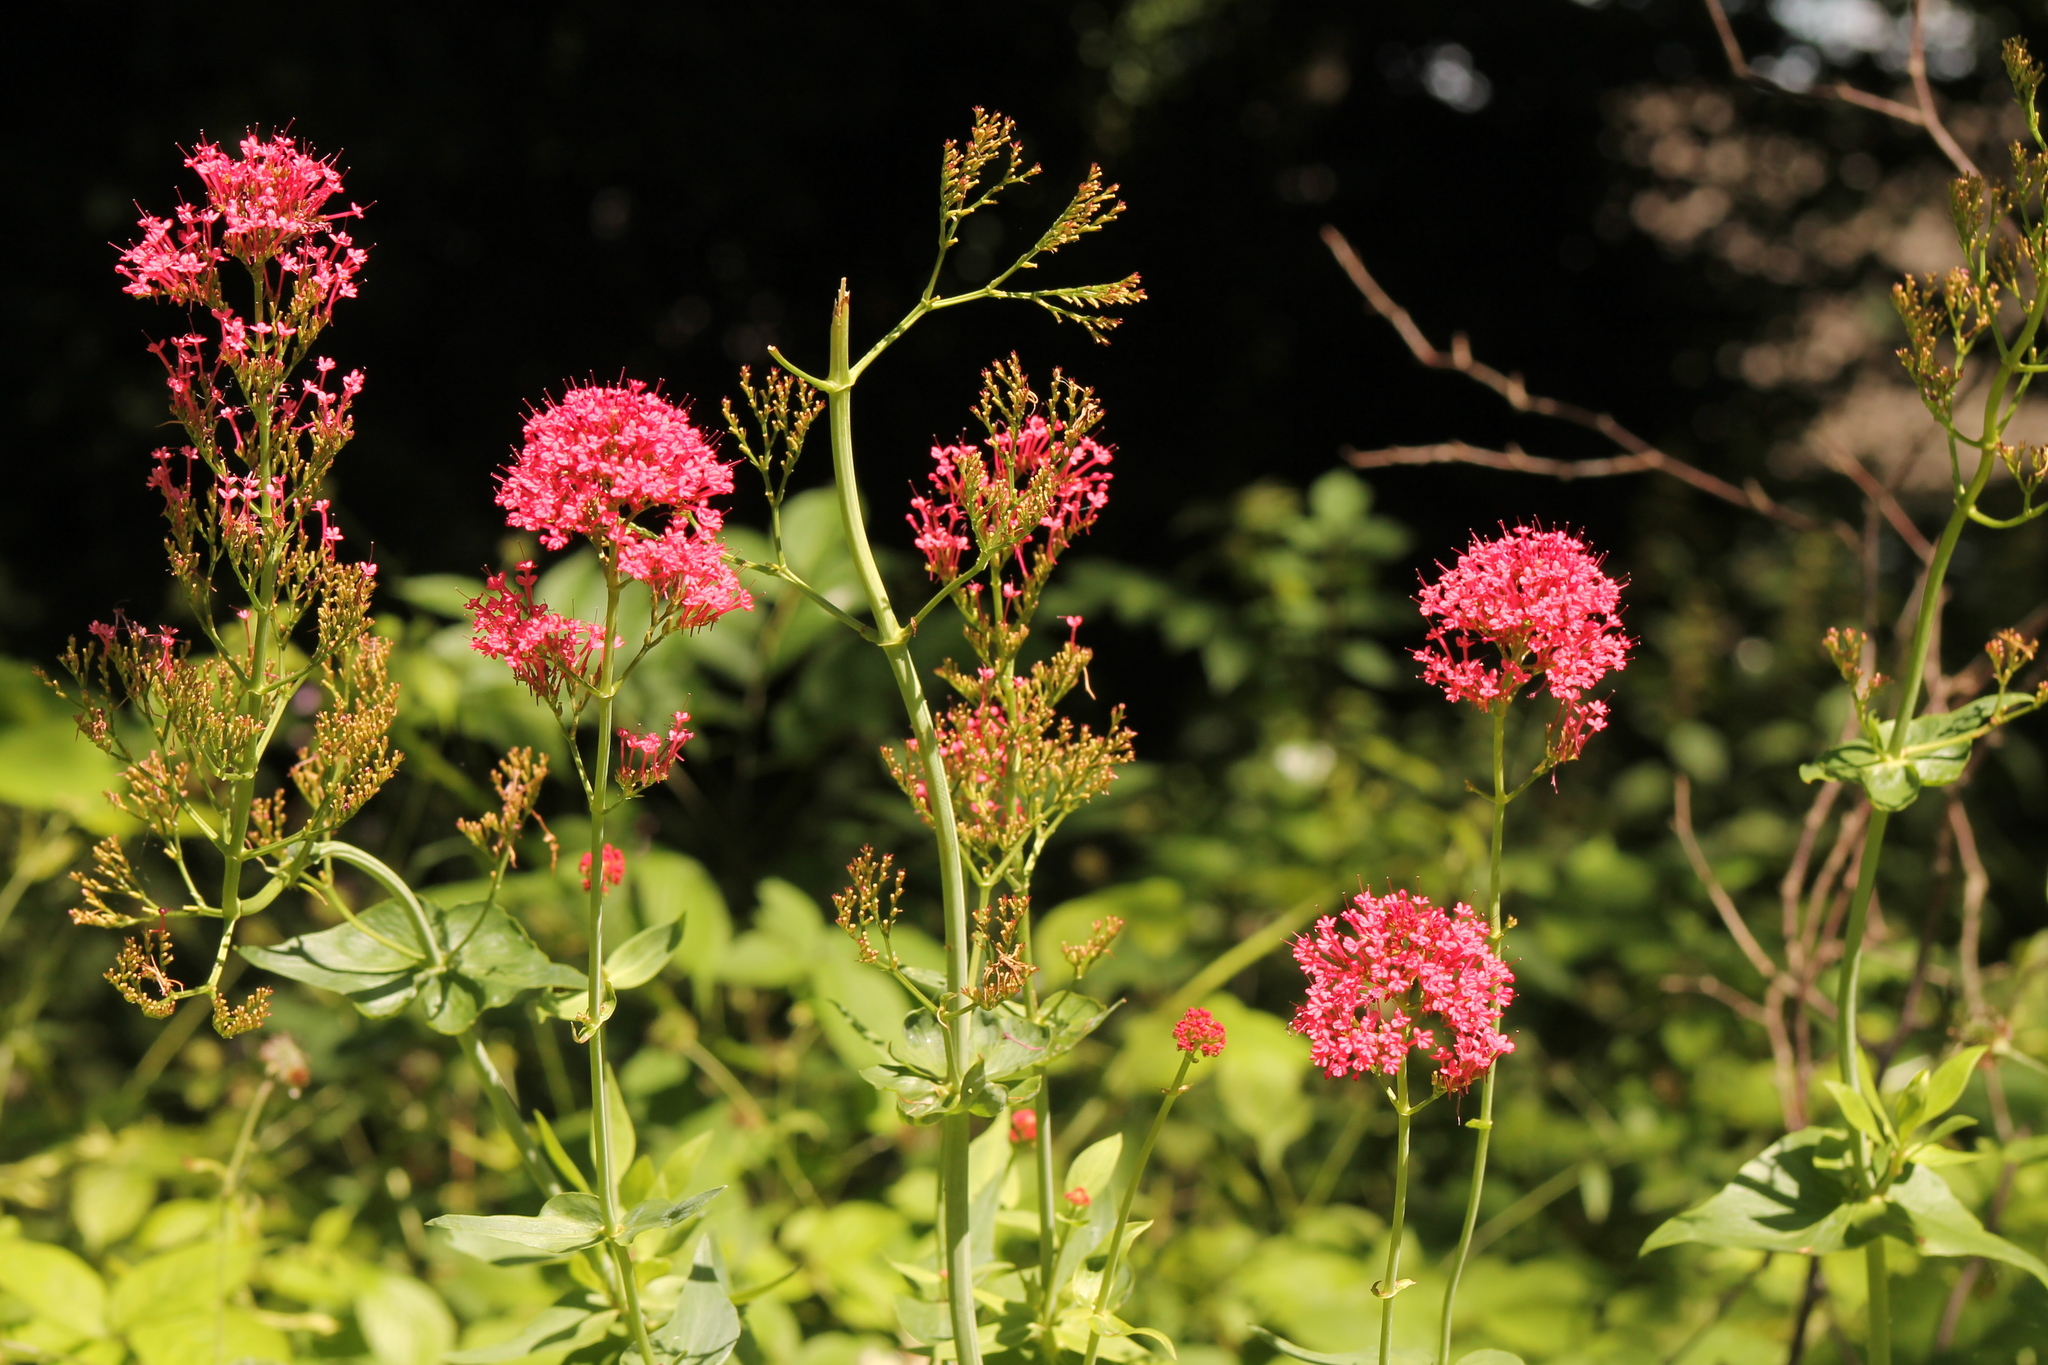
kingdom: Plantae
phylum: Tracheophyta
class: Magnoliopsida
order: Dipsacales
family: Caprifoliaceae
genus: Centranthus
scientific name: Centranthus ruber
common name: Red valerian
